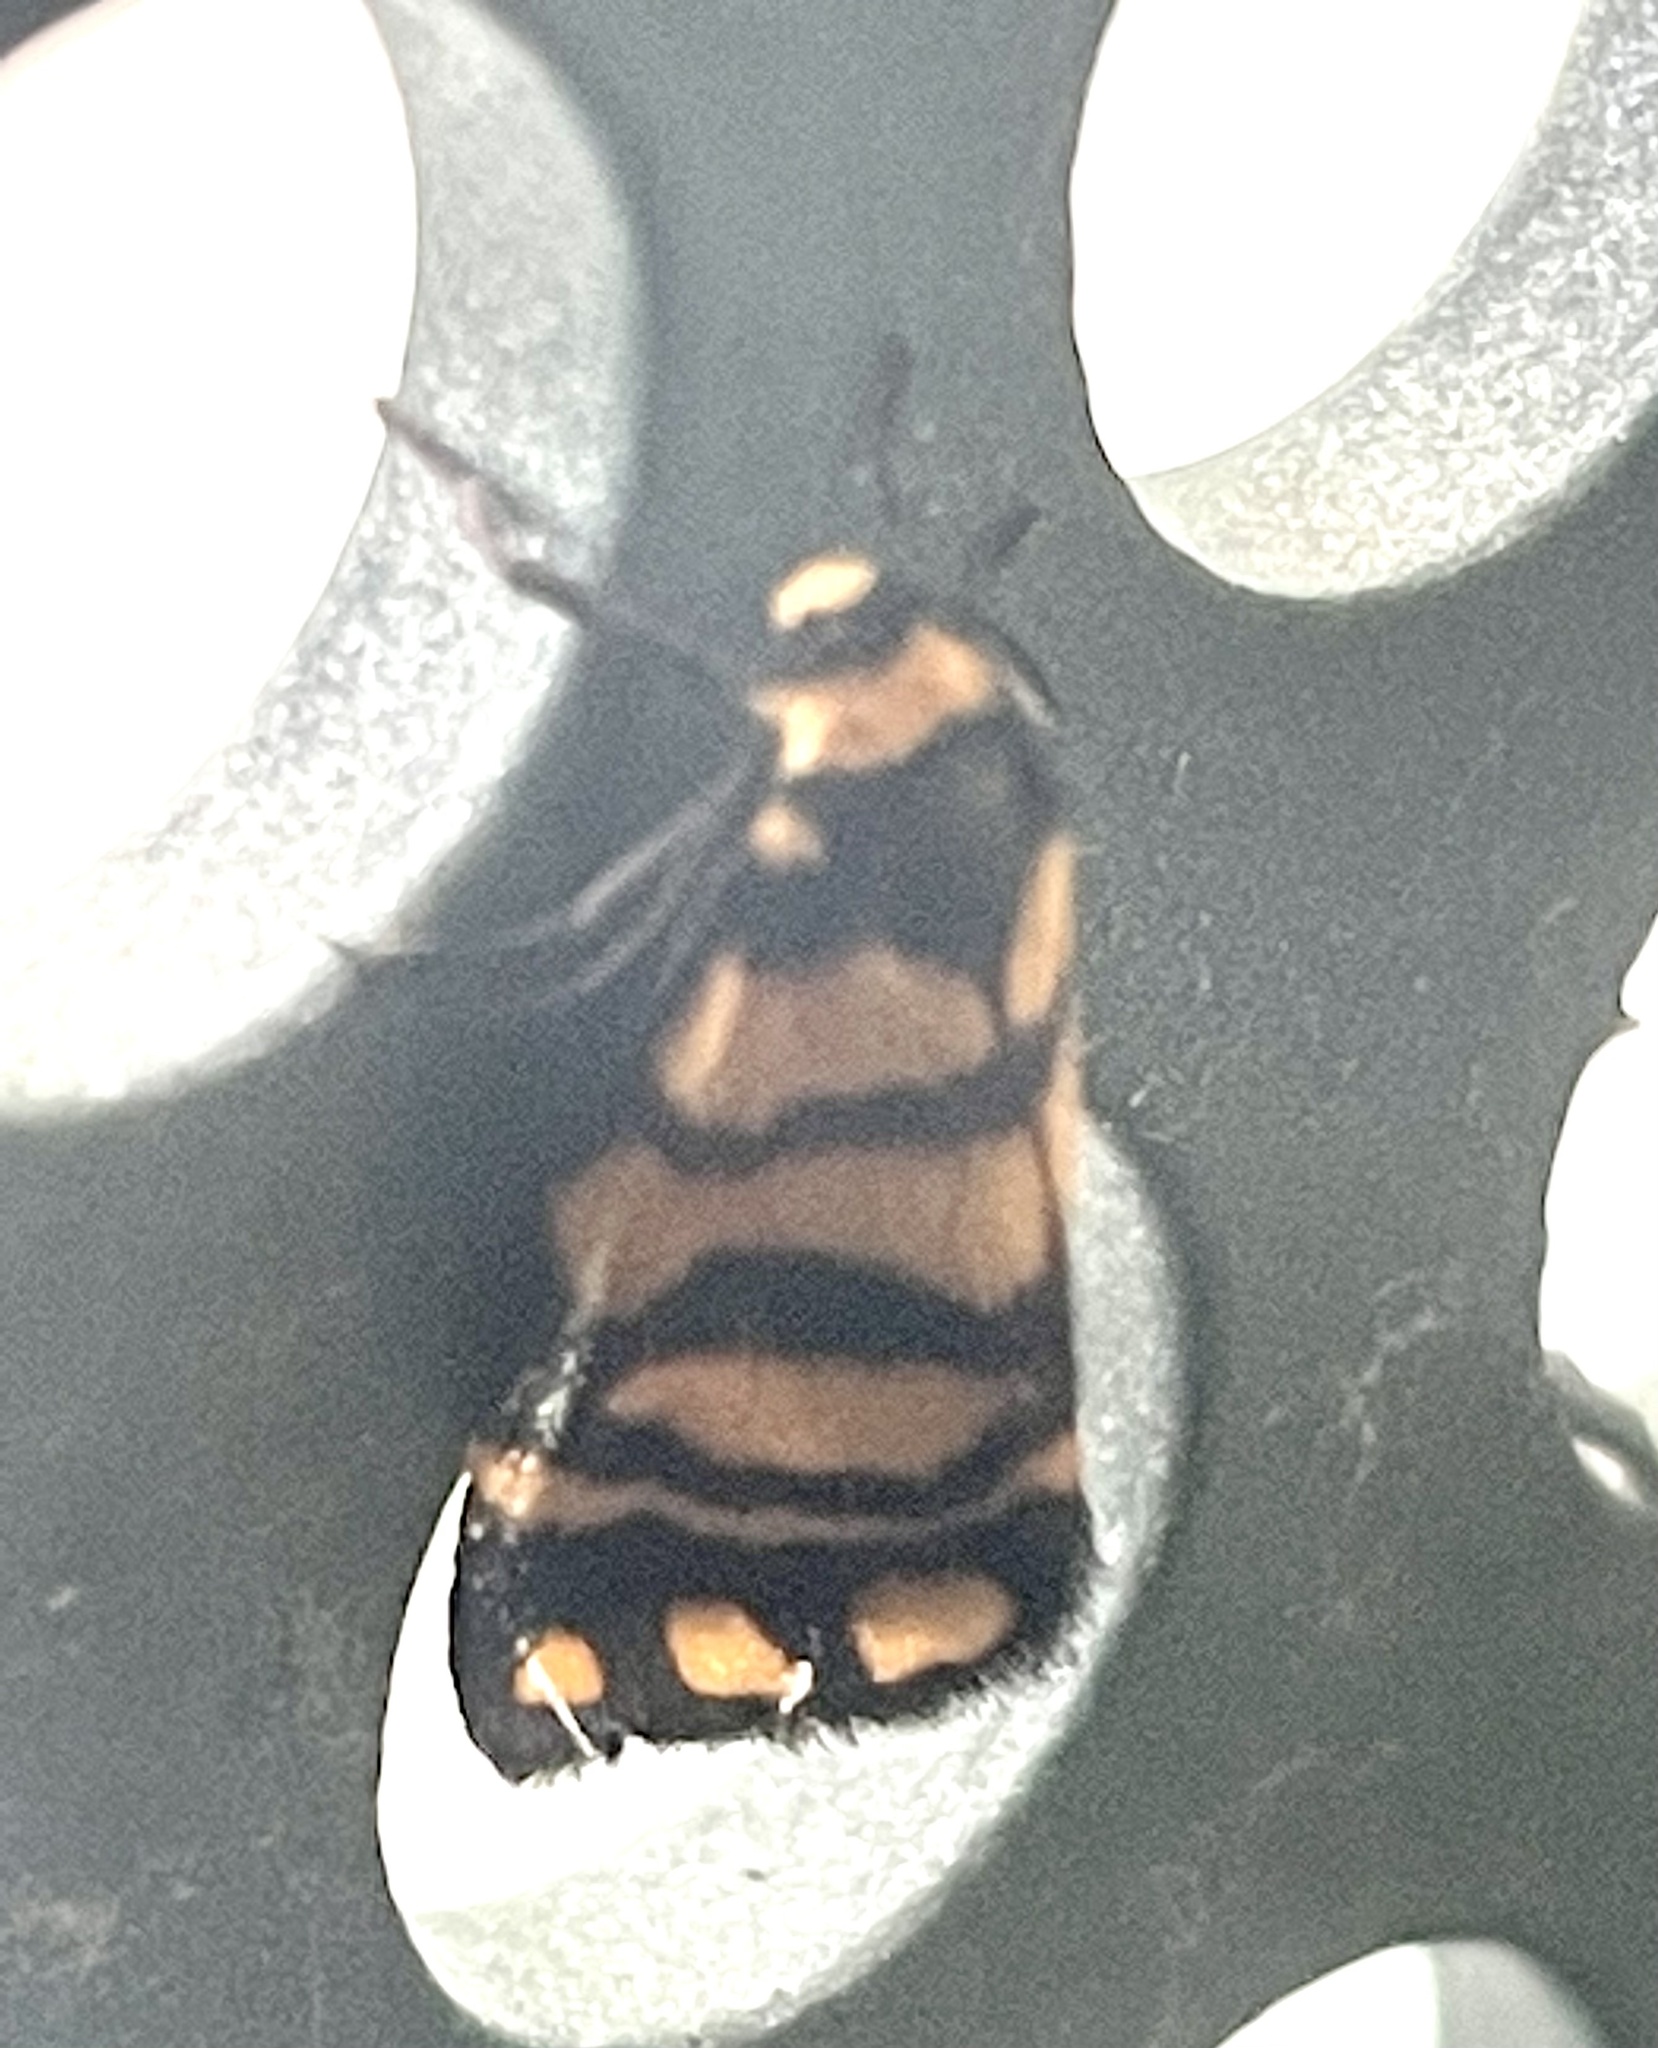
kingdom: Animalia
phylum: Arthropoda
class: Insecta
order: Lepidoptera
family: Erebidae
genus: Asura
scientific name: Asura lydia
